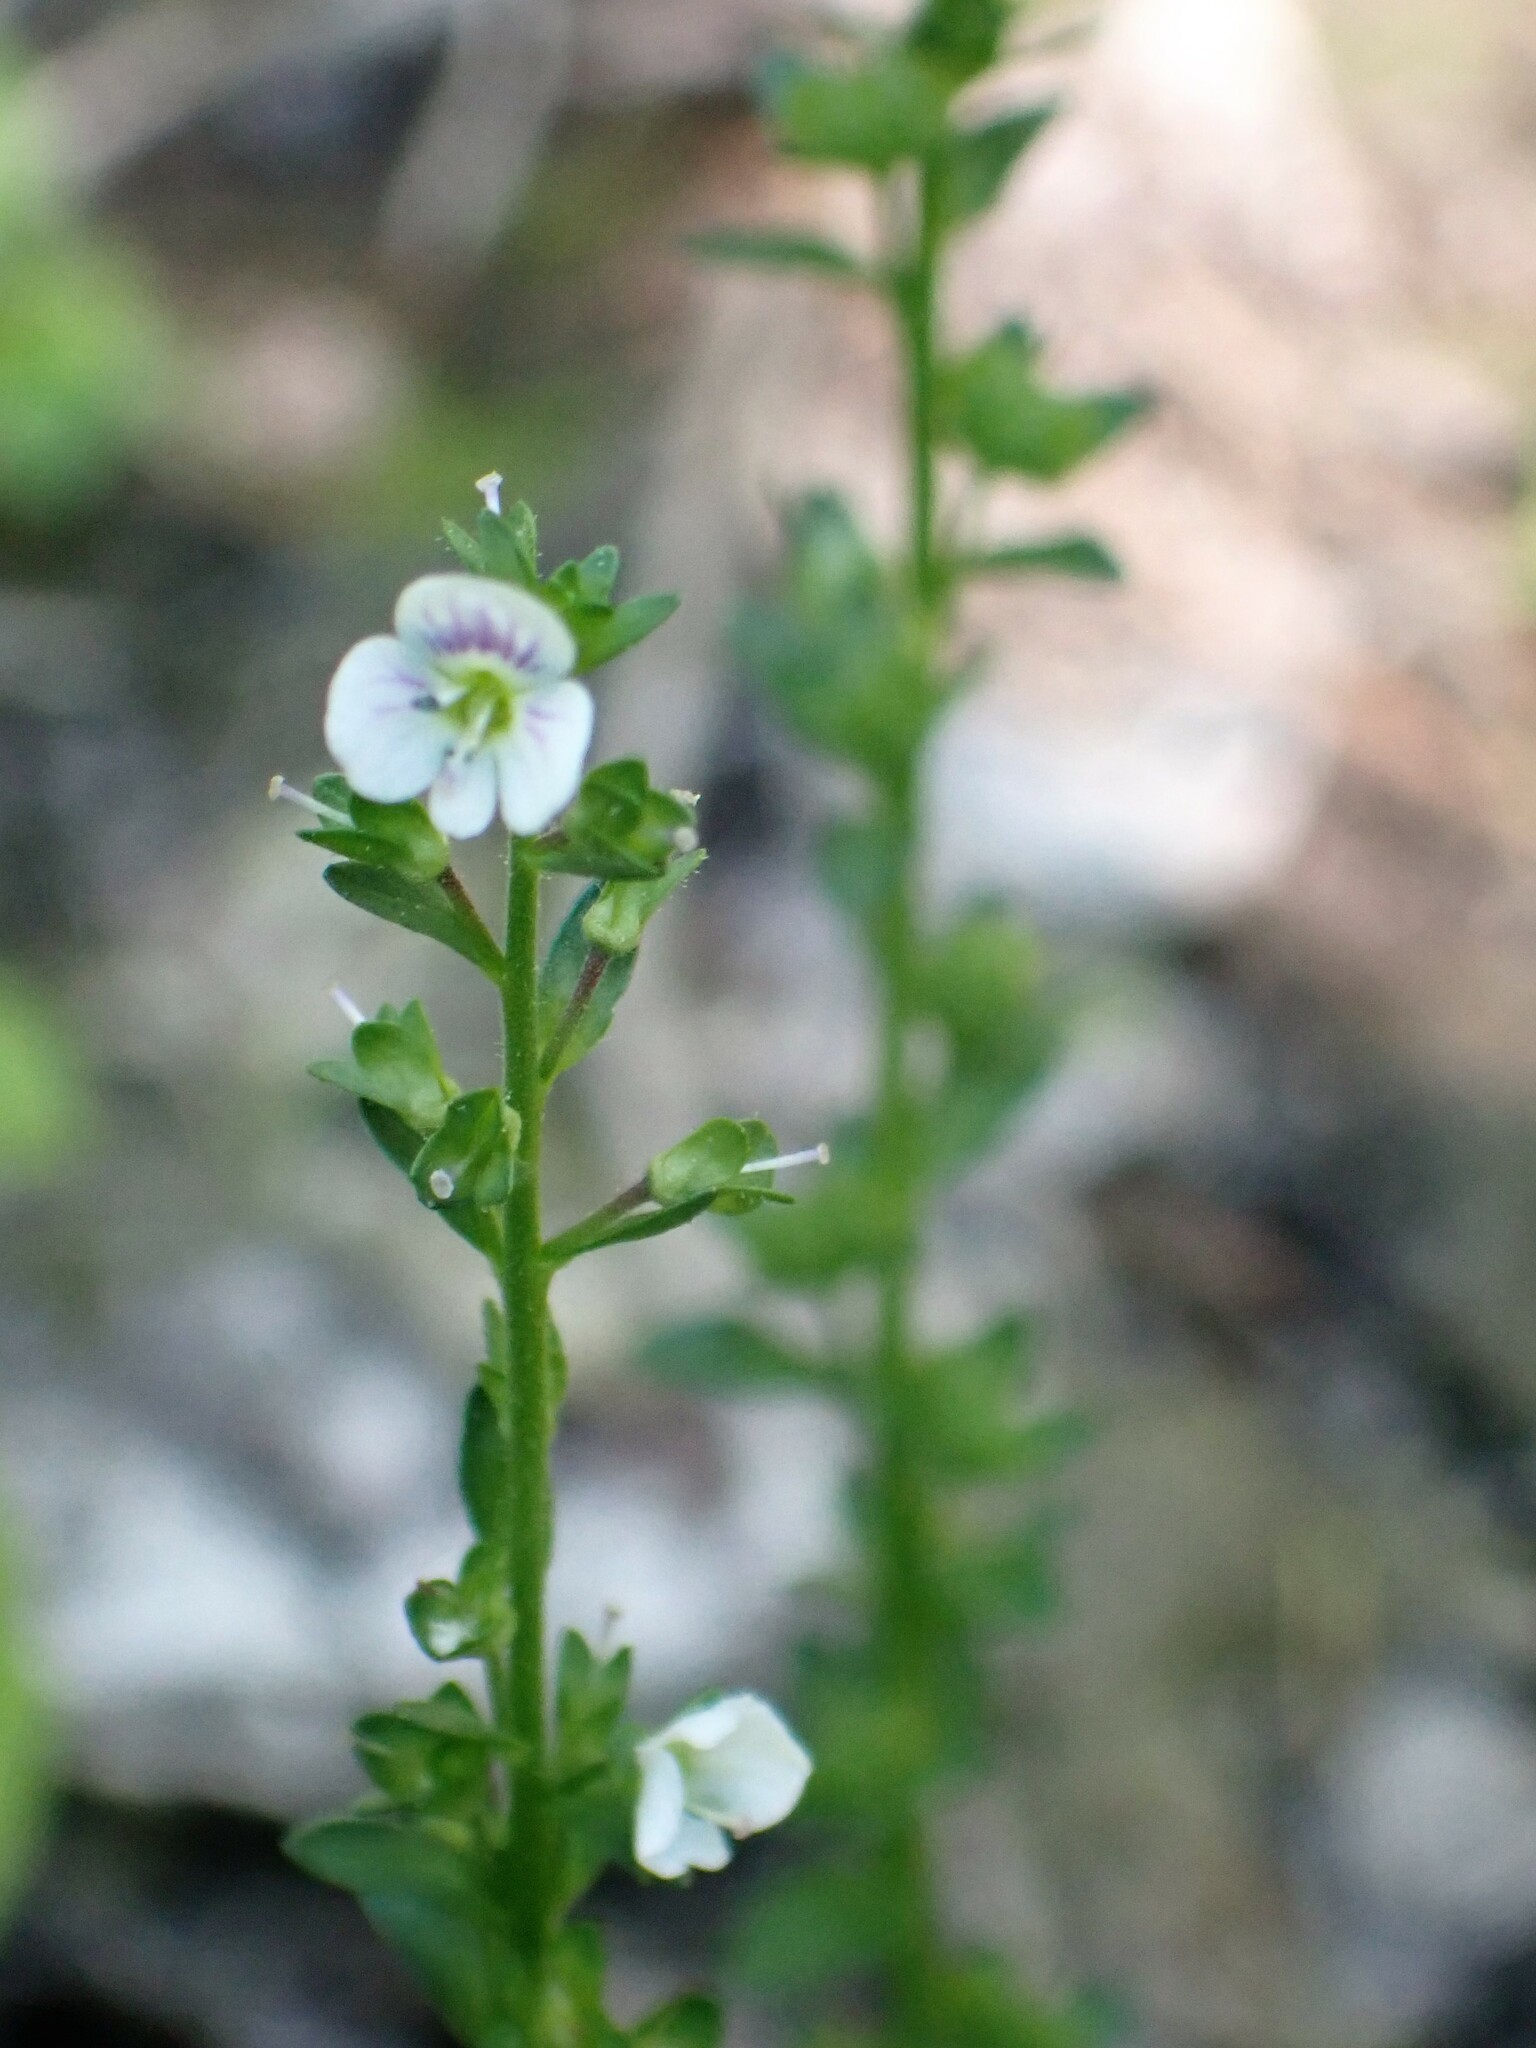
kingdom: Plantae
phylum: Tracheophyta
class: Magnoliopsida
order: Lamiales
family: Plantaginaceae
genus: Veronica
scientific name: Veronica serpyllifolia
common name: Thyme-leaved speedwell
